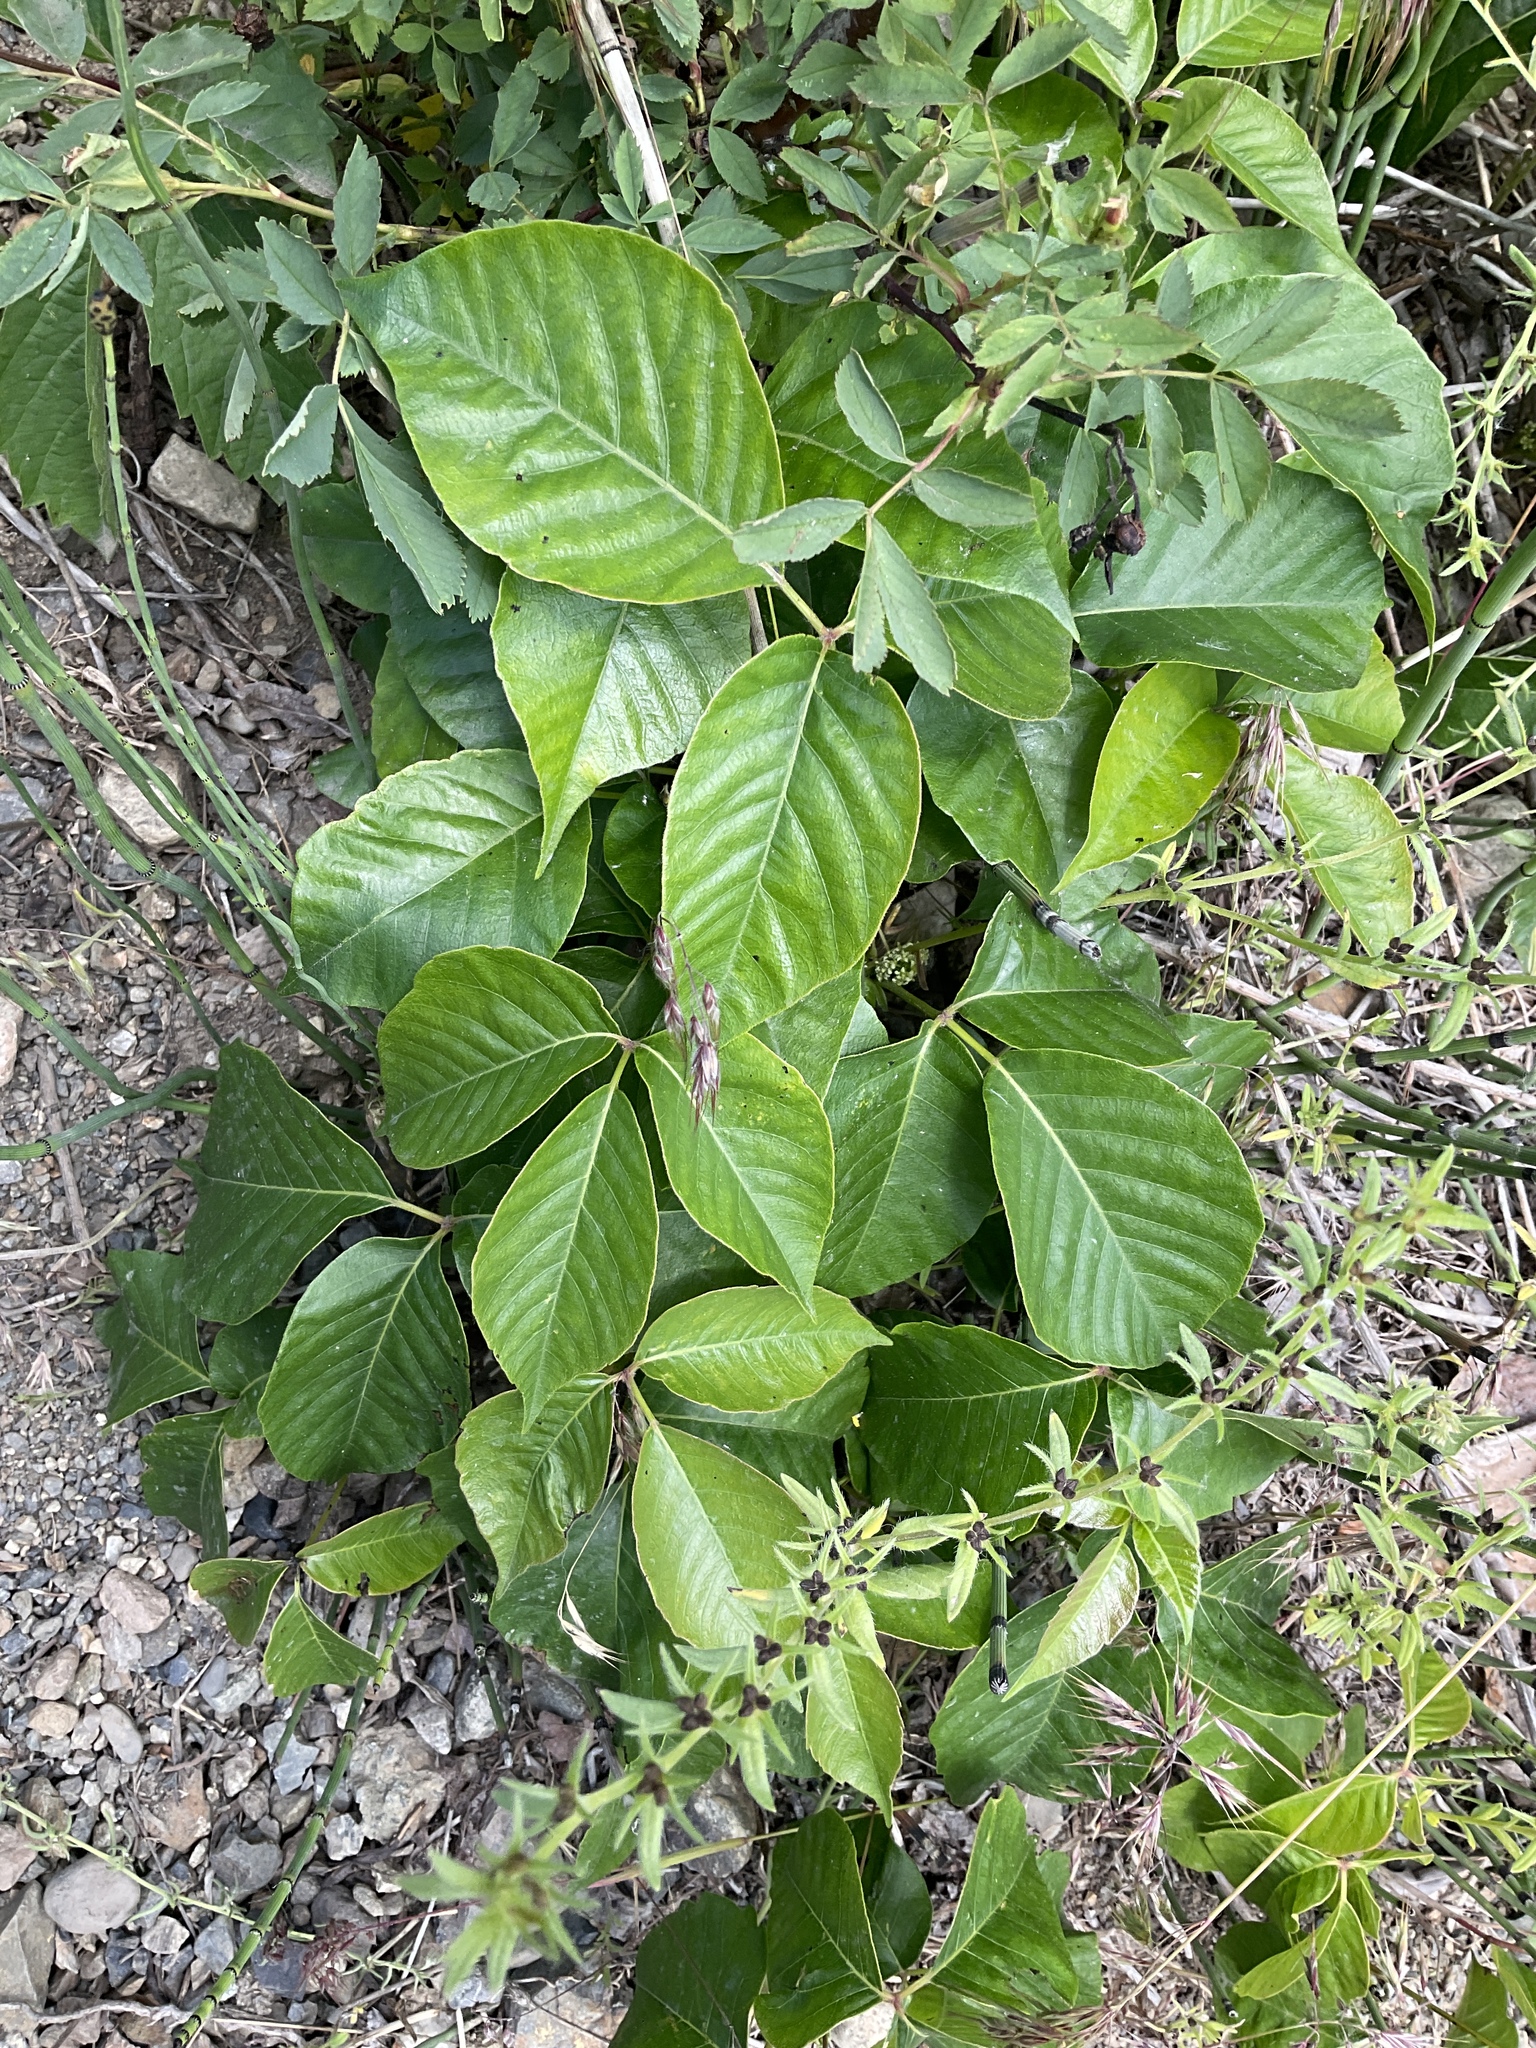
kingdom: Plantae
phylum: Tracheophyta
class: Magnoliopsida
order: Sapindales
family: Anacardiaceae
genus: Toxicodendron
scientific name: Toxicodendron rydbergii
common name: Rydberg's poison-ivy
